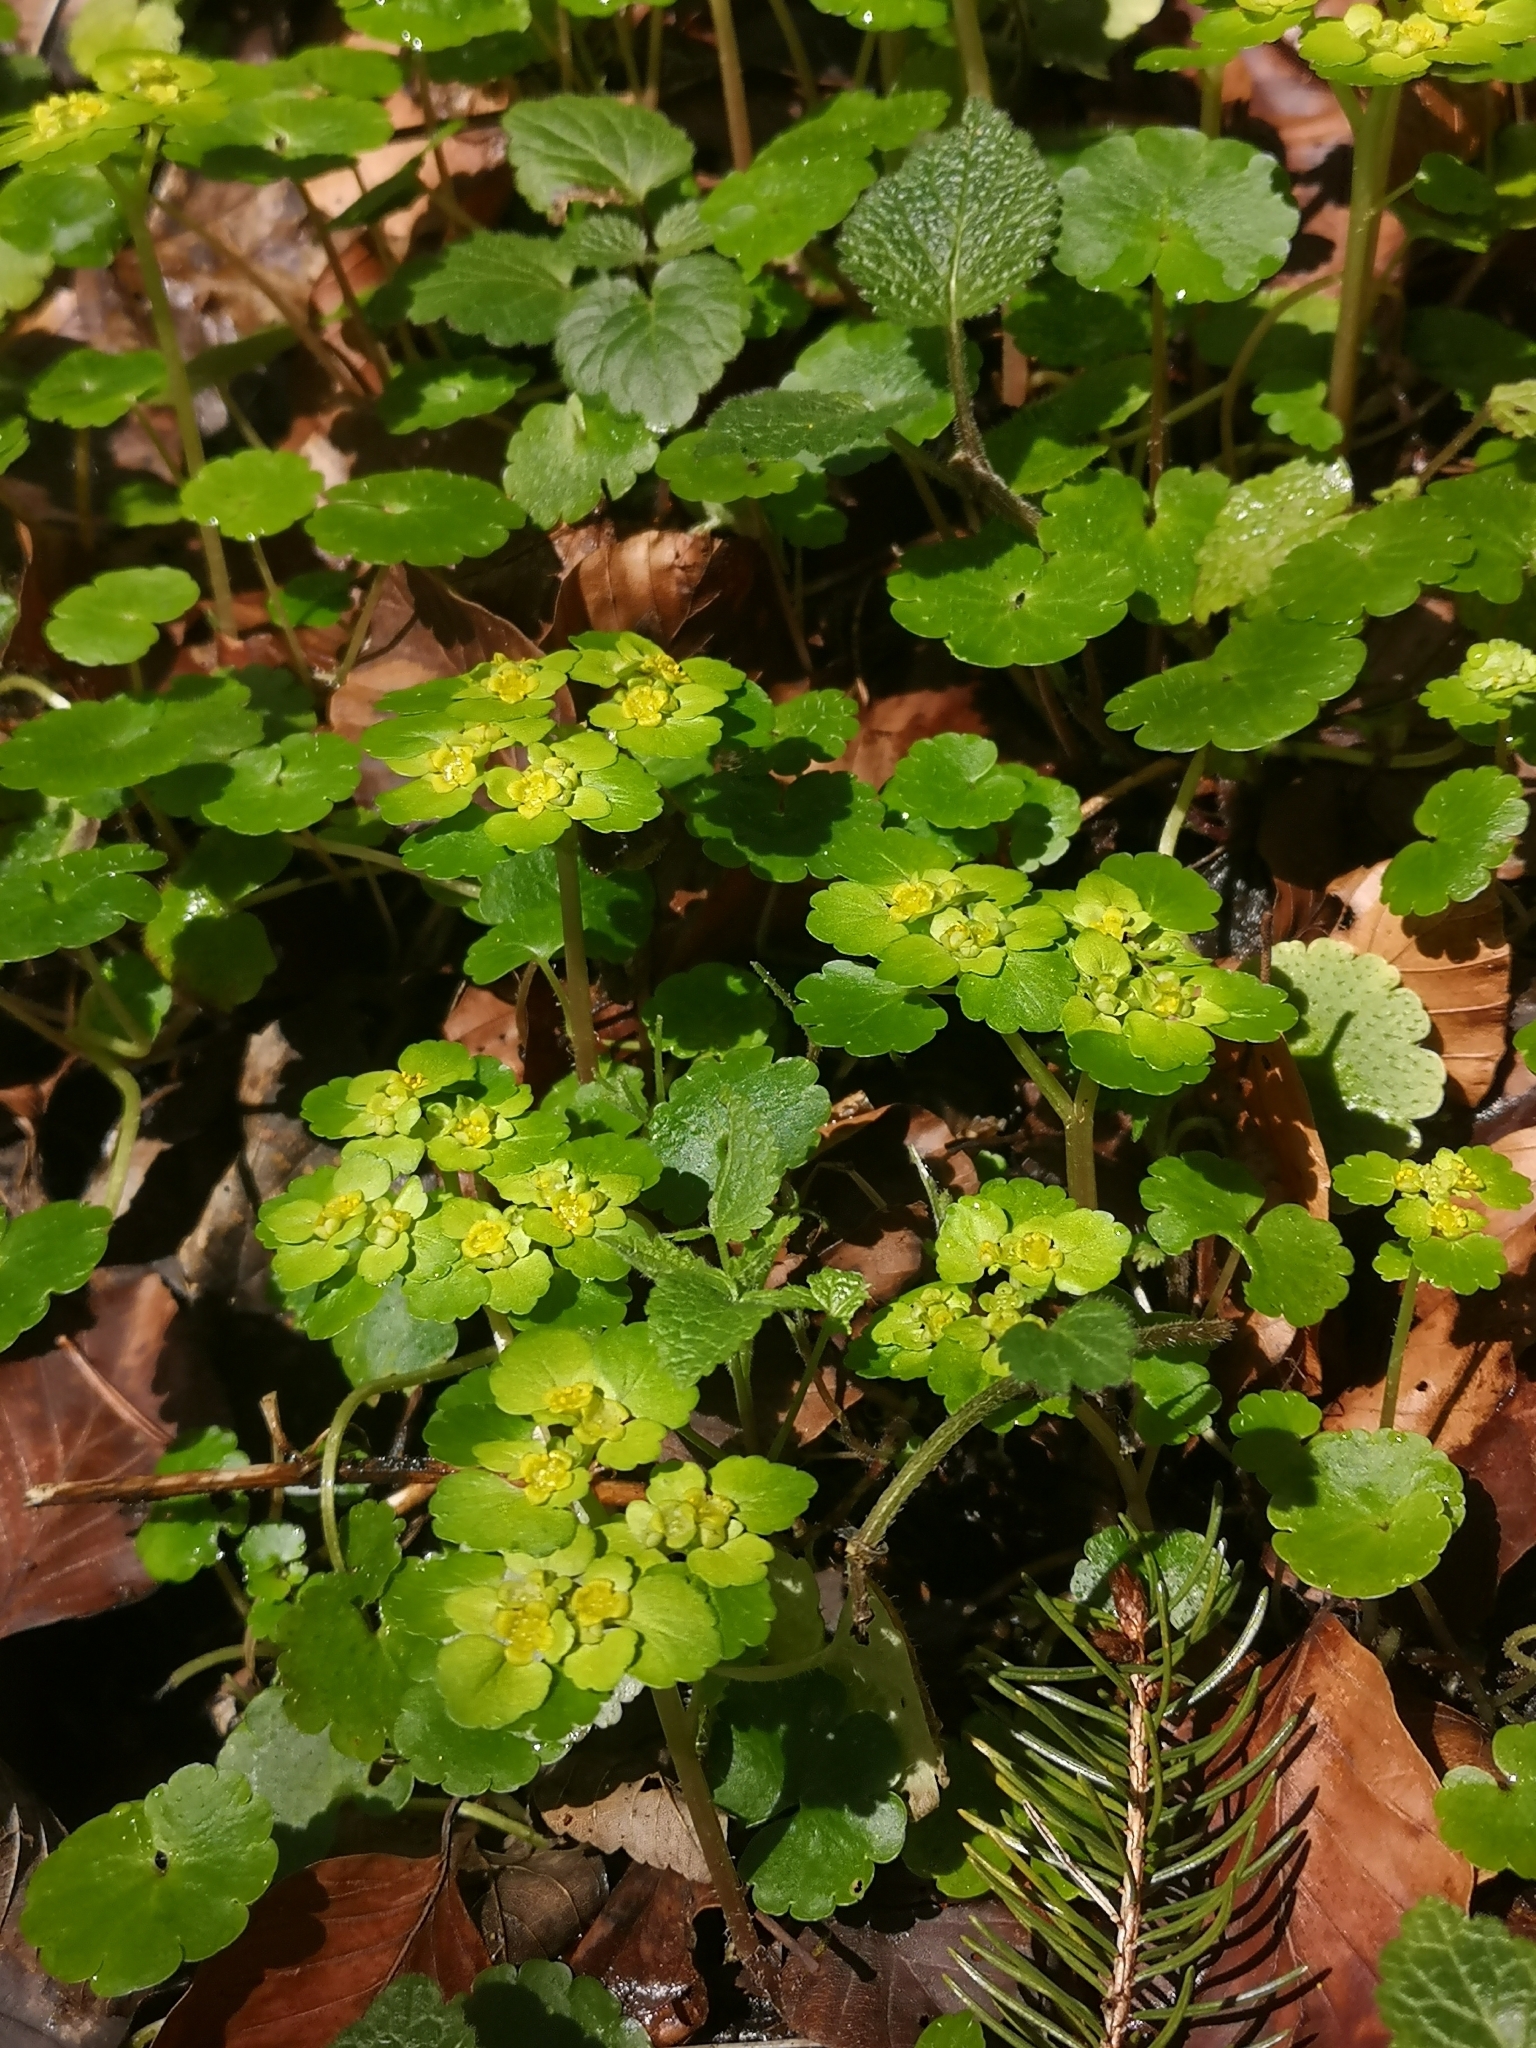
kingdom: Plantae
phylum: Tracheophyta
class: Magnoliopsida
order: Saxifragales
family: Saxifragaceae
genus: Chrysosplenium
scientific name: Chrysosplenium alternifolium
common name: Alternate-leaved golden-saxifrage
